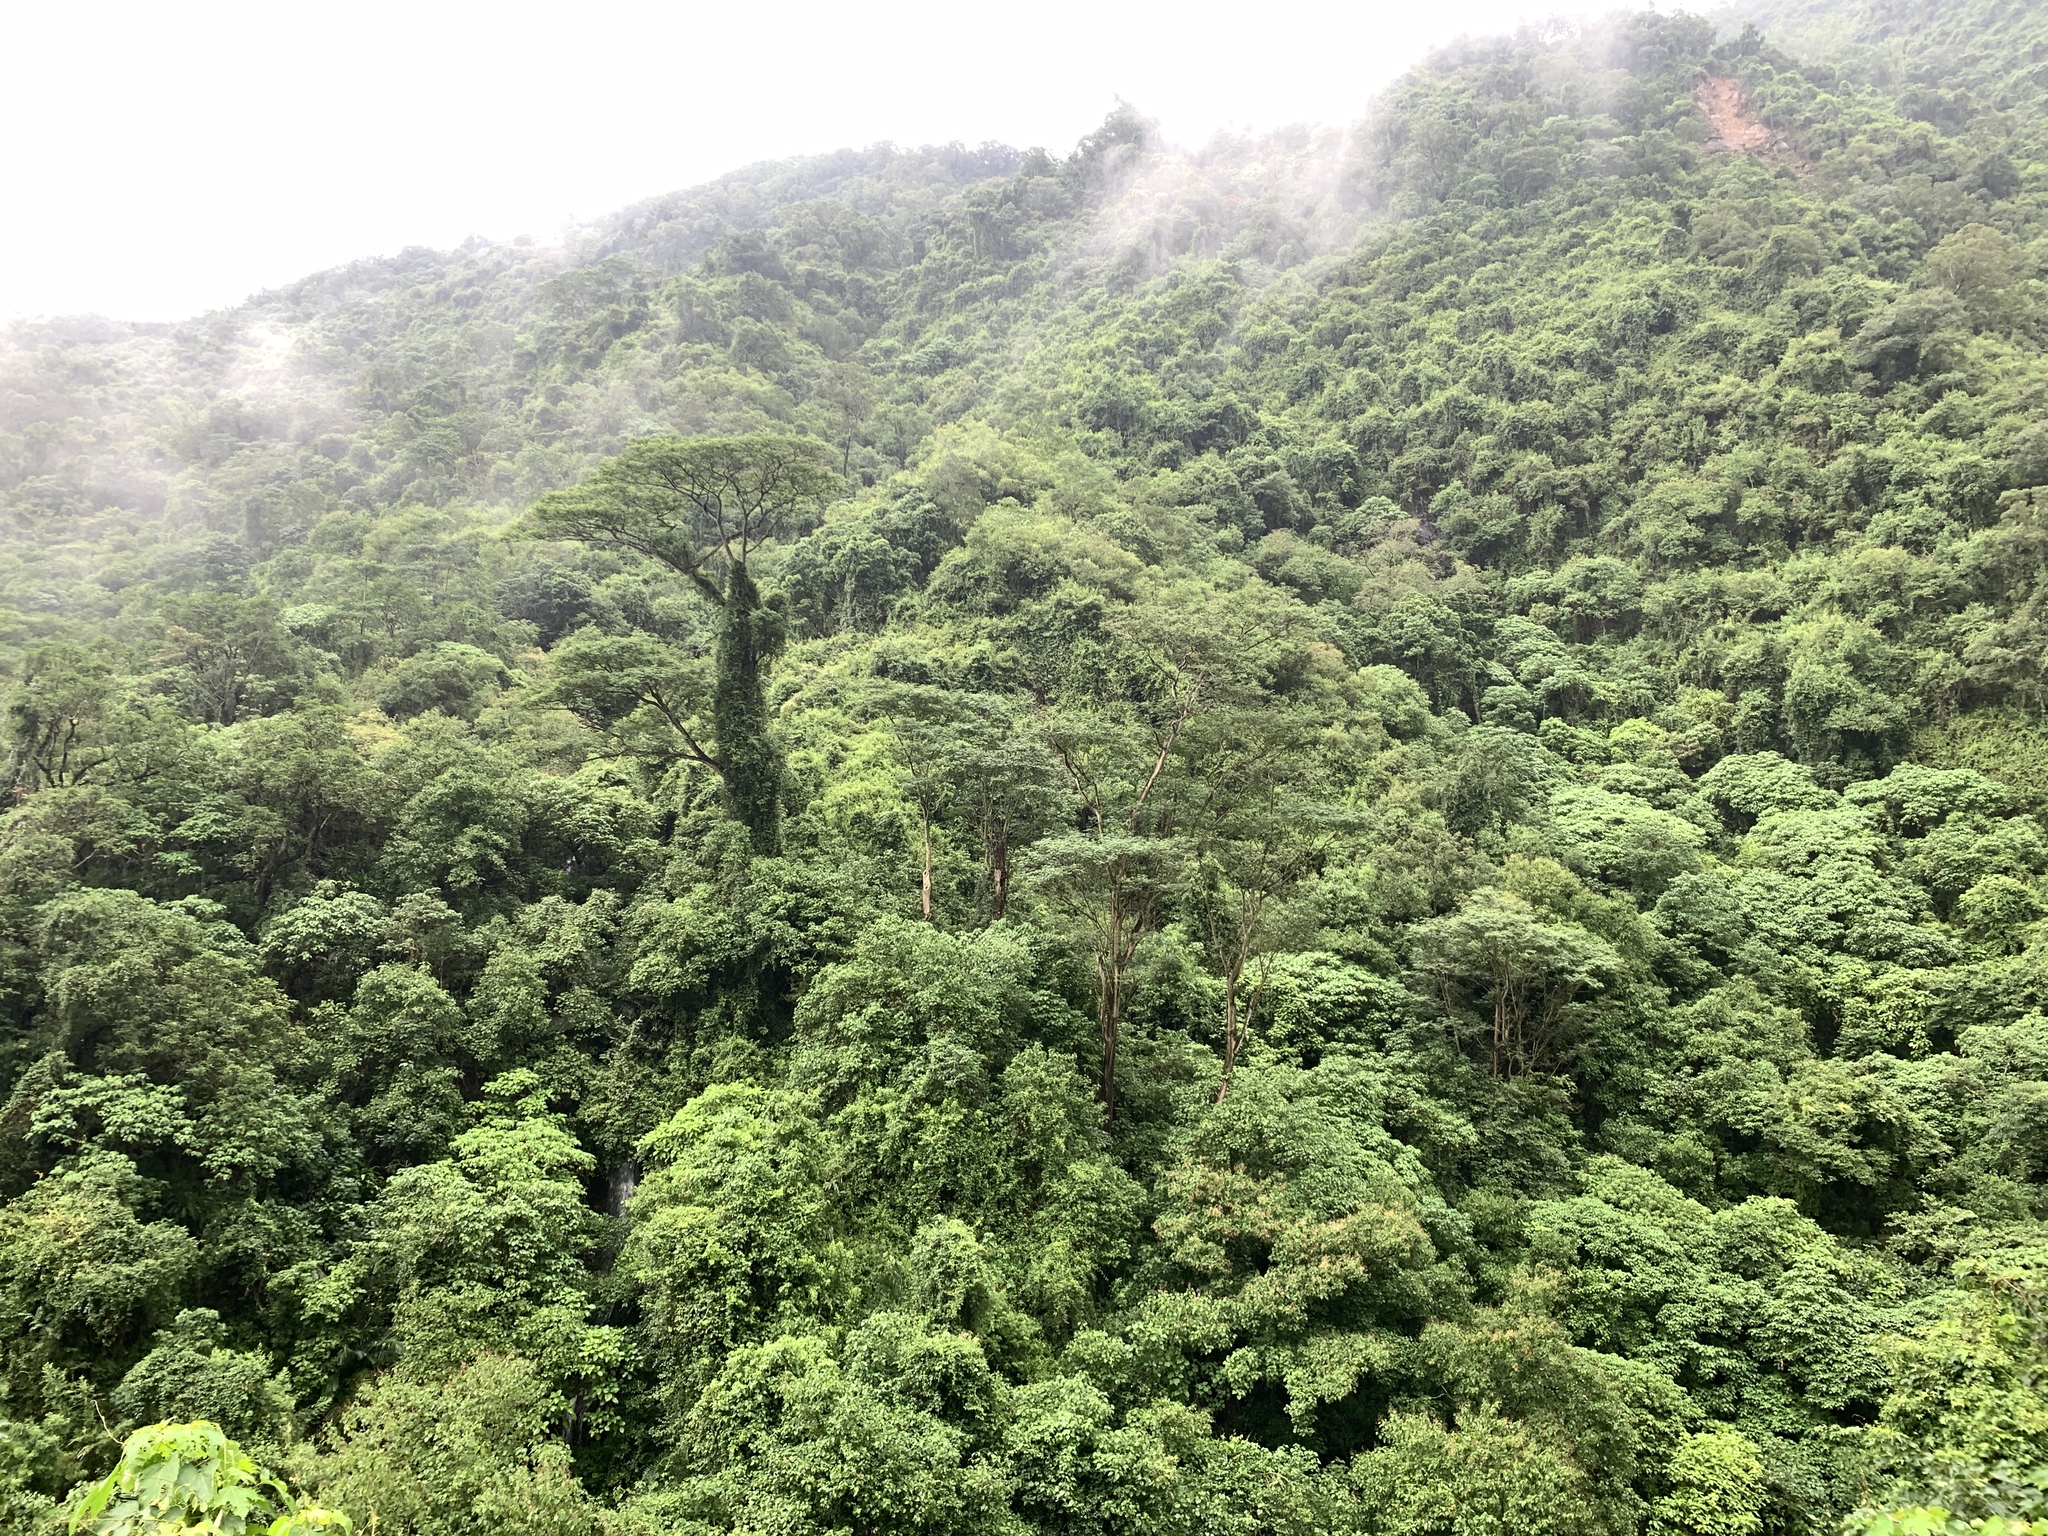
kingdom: Plantae
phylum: Tracheophyta
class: Magnoliopsida
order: Fabales
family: Fabaceae
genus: Falcataria
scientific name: Falcataria falcata
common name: Moluccan albizia
